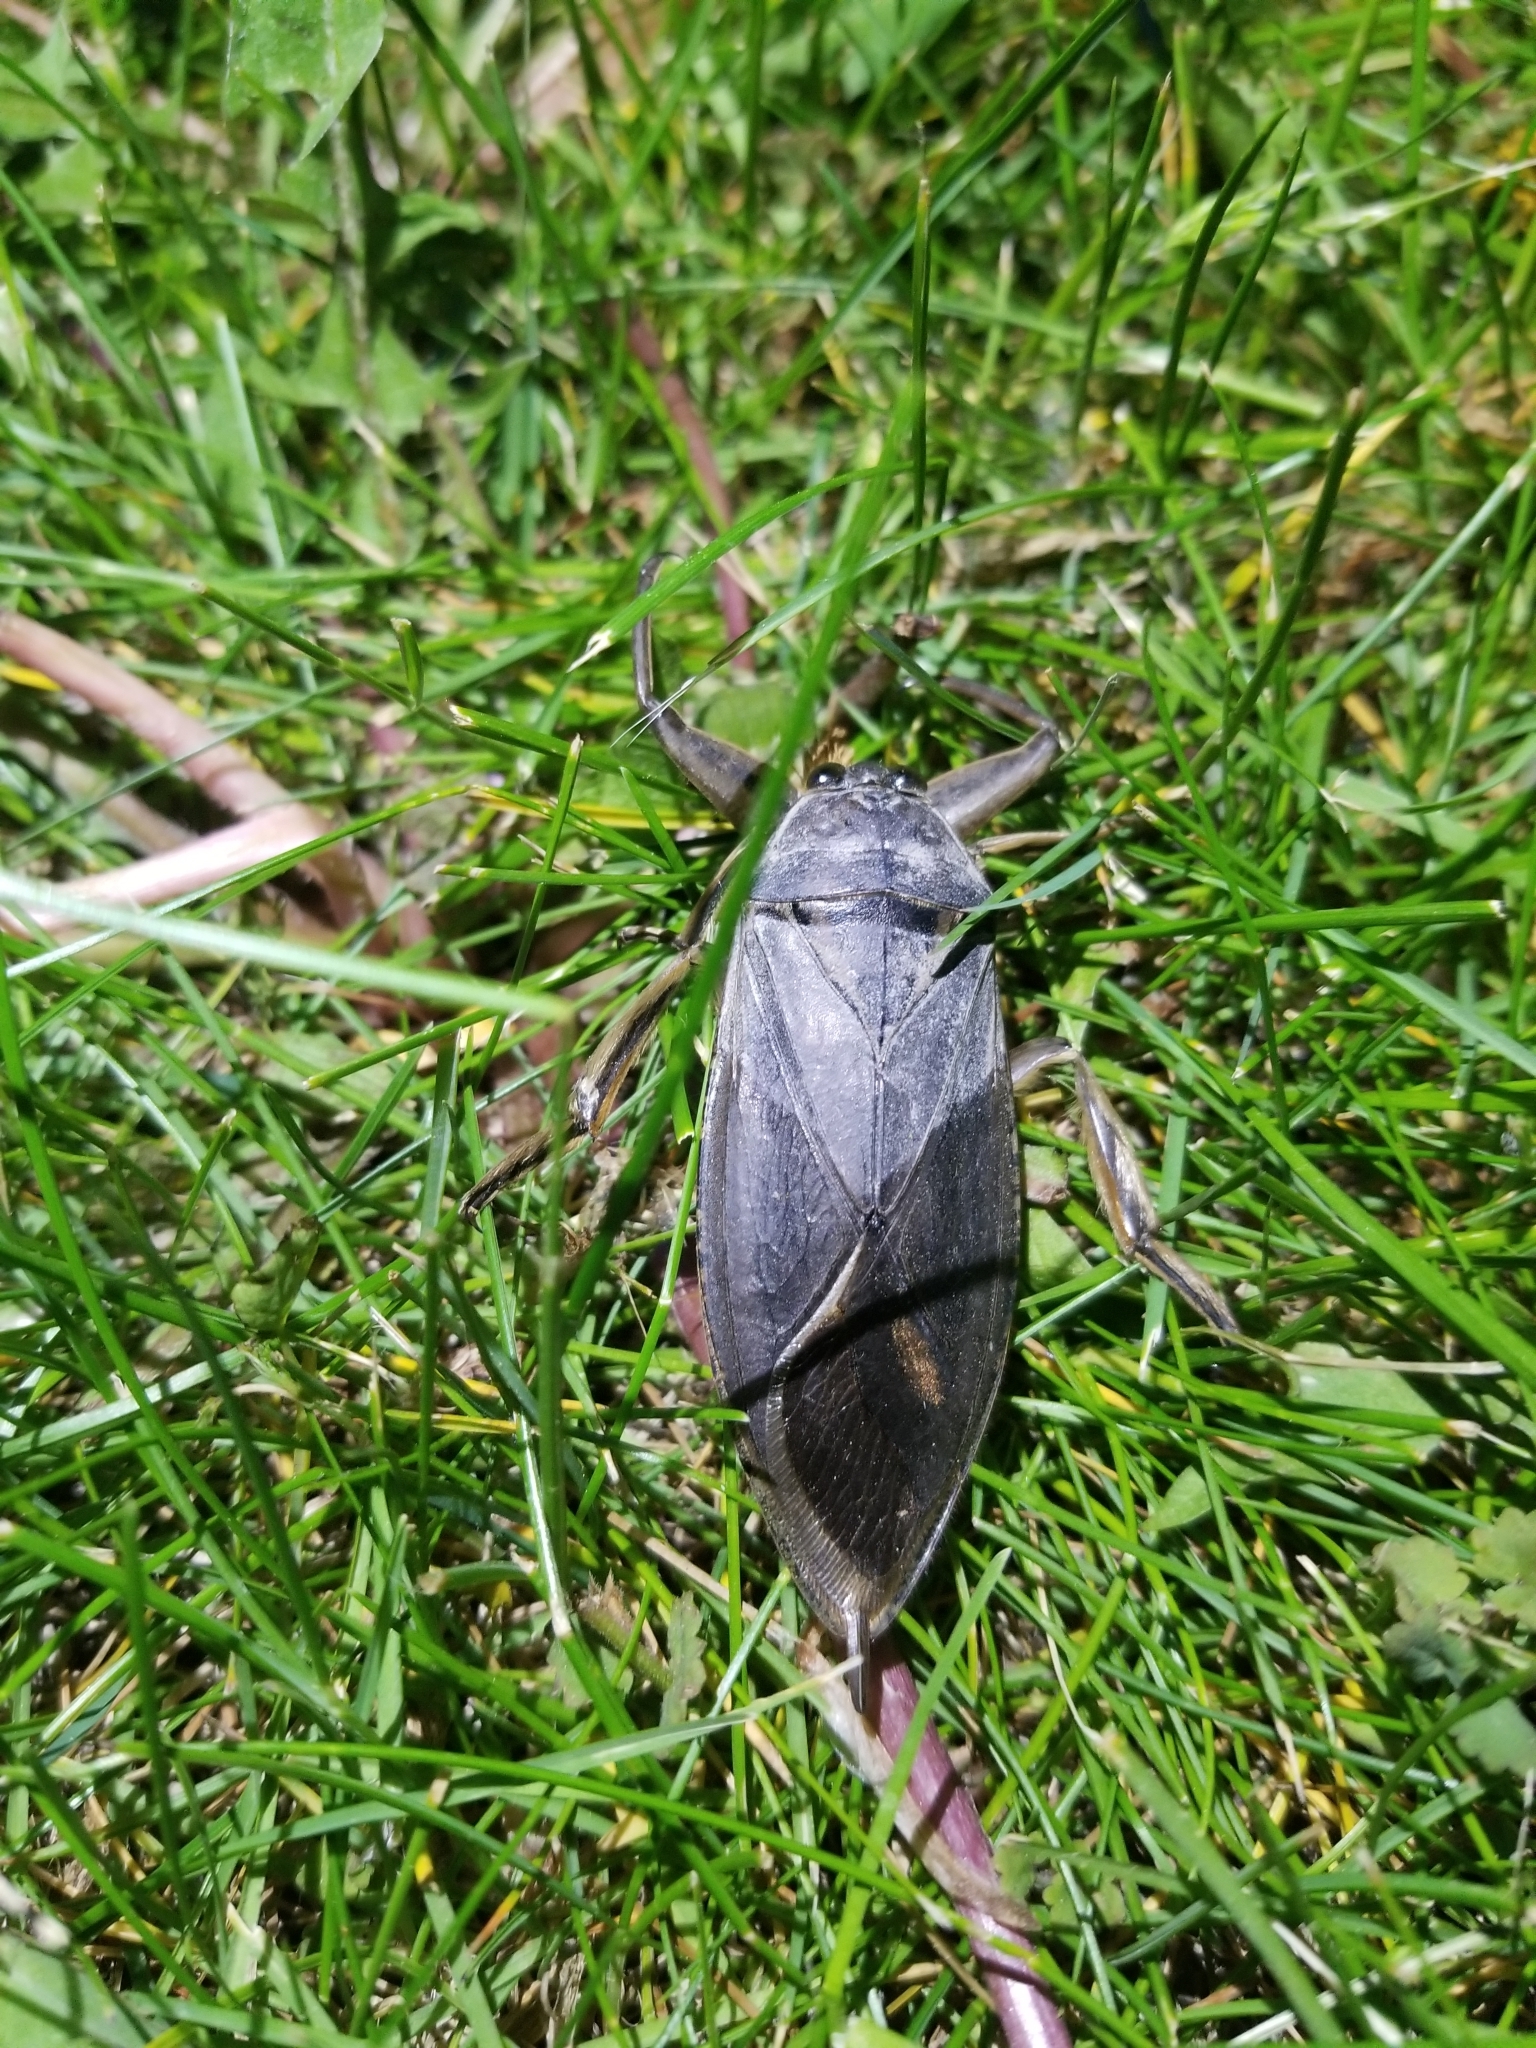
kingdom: Animalia
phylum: Arthropoda
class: Insecta
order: Hemiptera
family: Belostomatidae
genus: Lethocerus
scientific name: Lethocerus americanus
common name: Giant water bug
